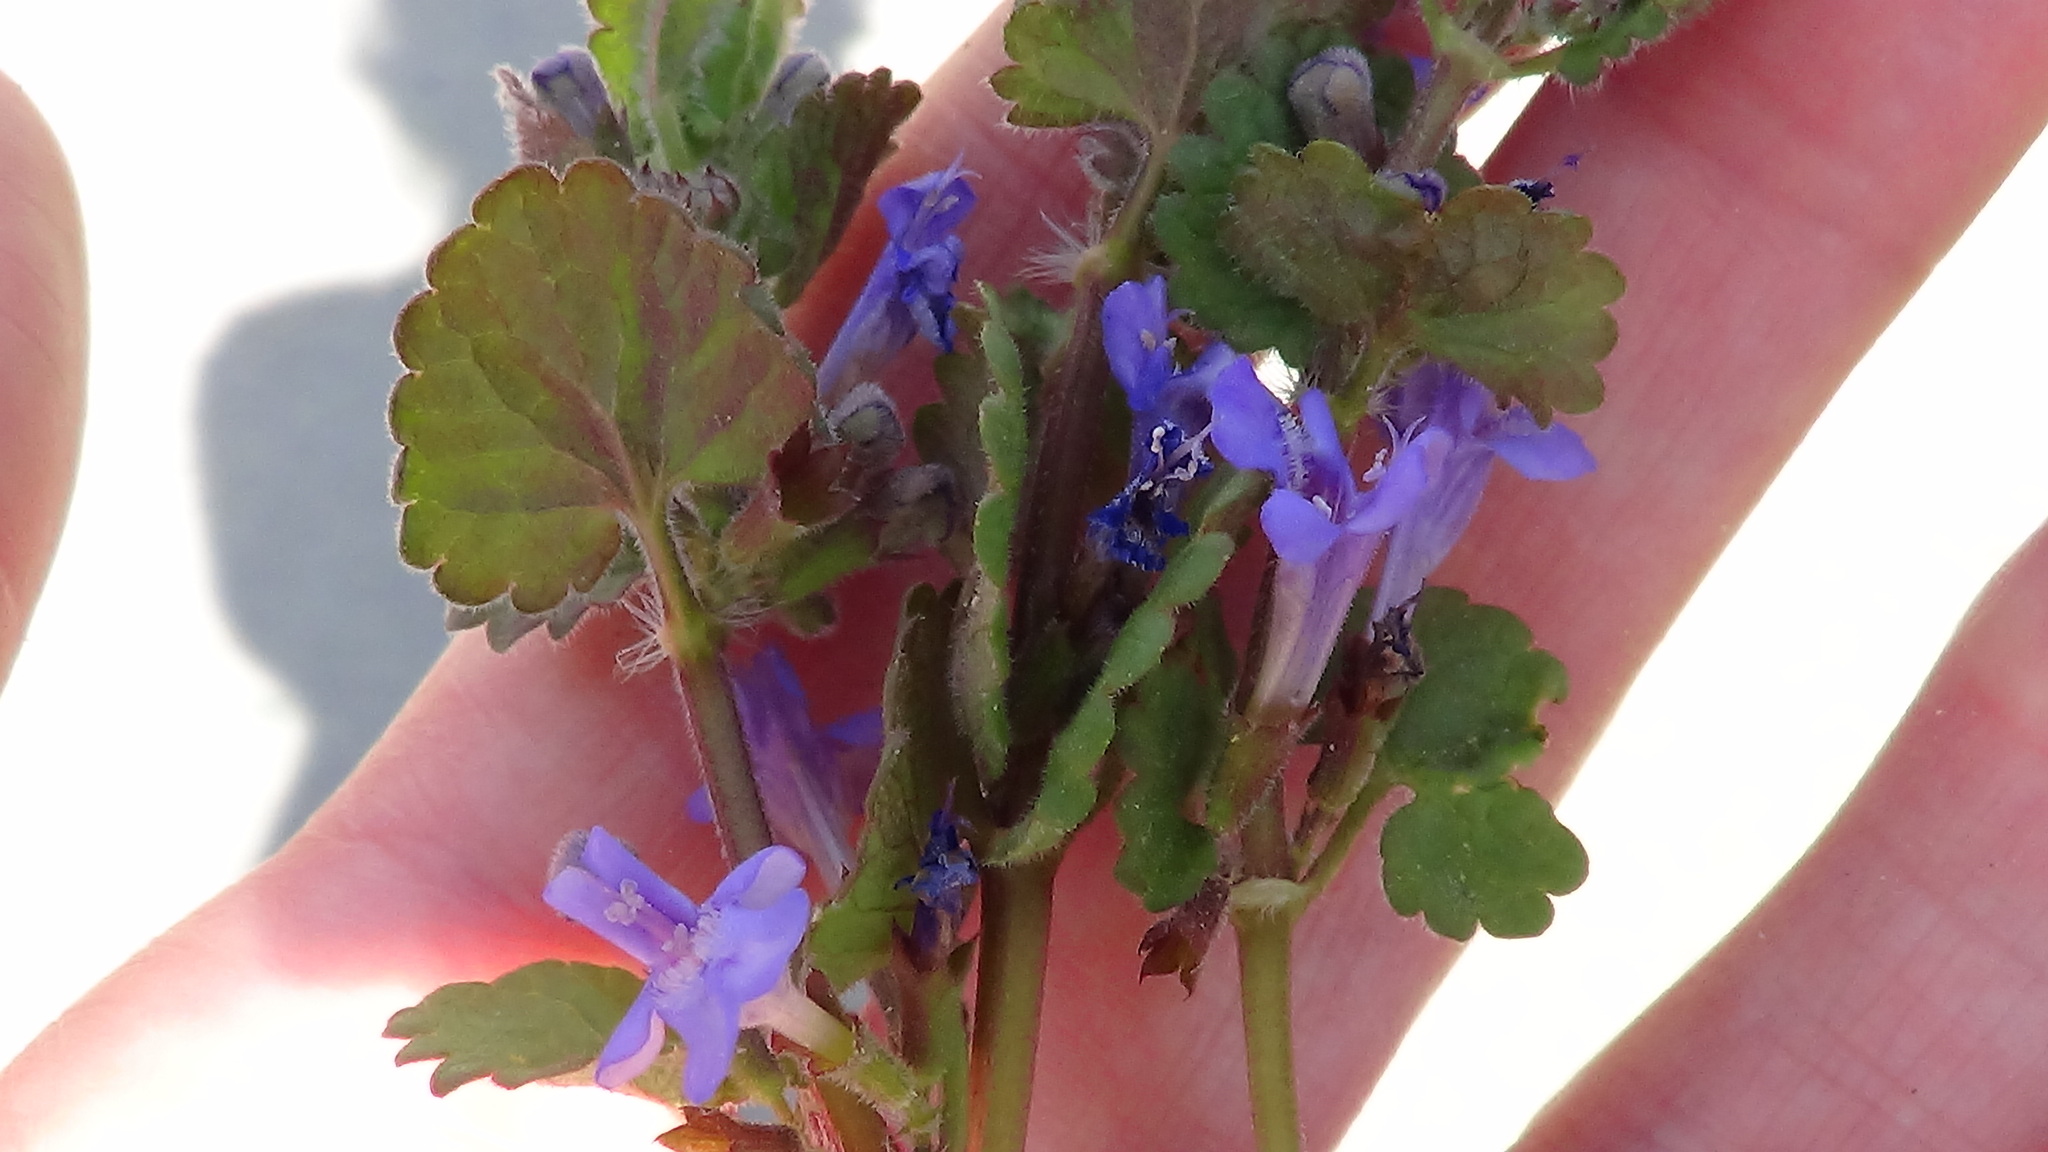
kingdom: Plantae
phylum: Tracheophyta
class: Magnoliopsida
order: Lamiales
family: Lamiaceae
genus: Glechoma
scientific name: Glechoma hederacea
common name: Ground ivy
